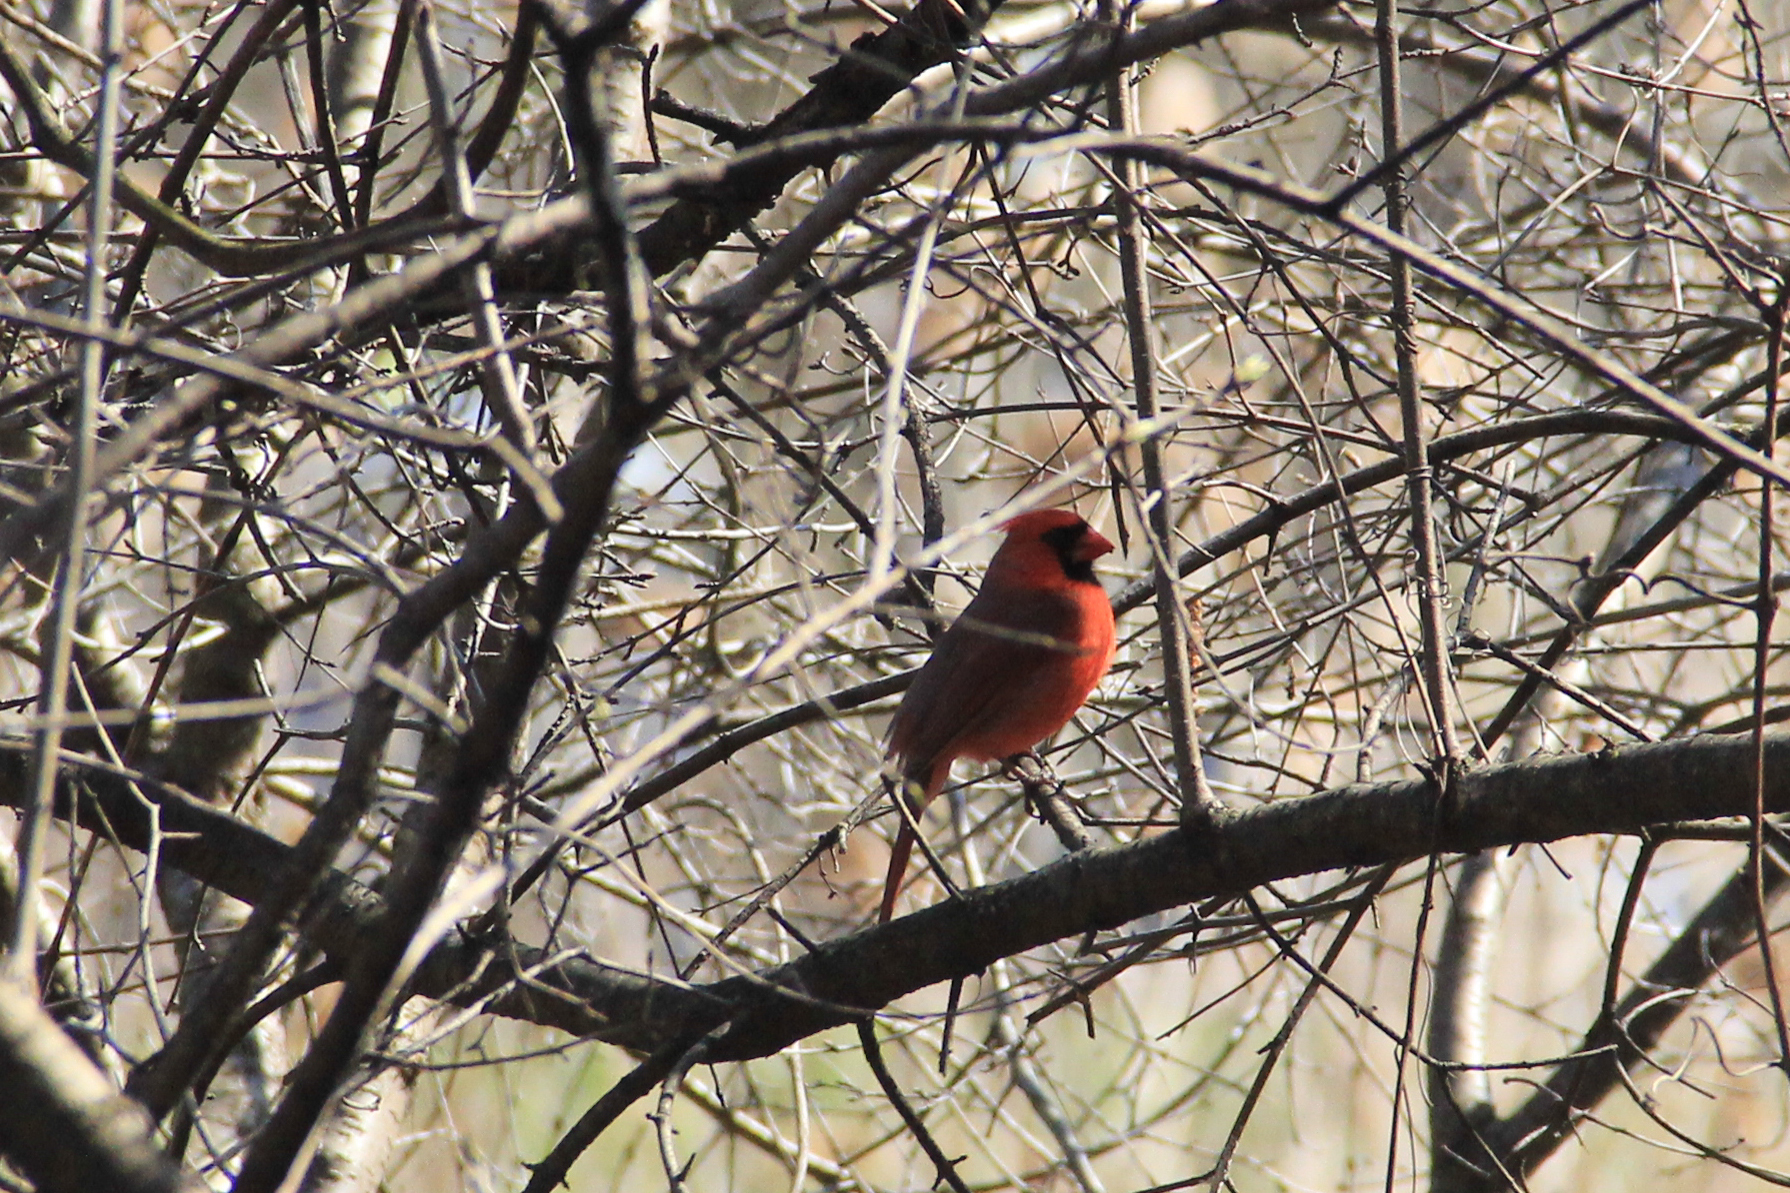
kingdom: Animalia
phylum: Chordata
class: Aves
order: Passeriformes
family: Cardinalidae
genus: Cardinalis
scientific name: Cardinalis cardinalis
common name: Northern cardinal
